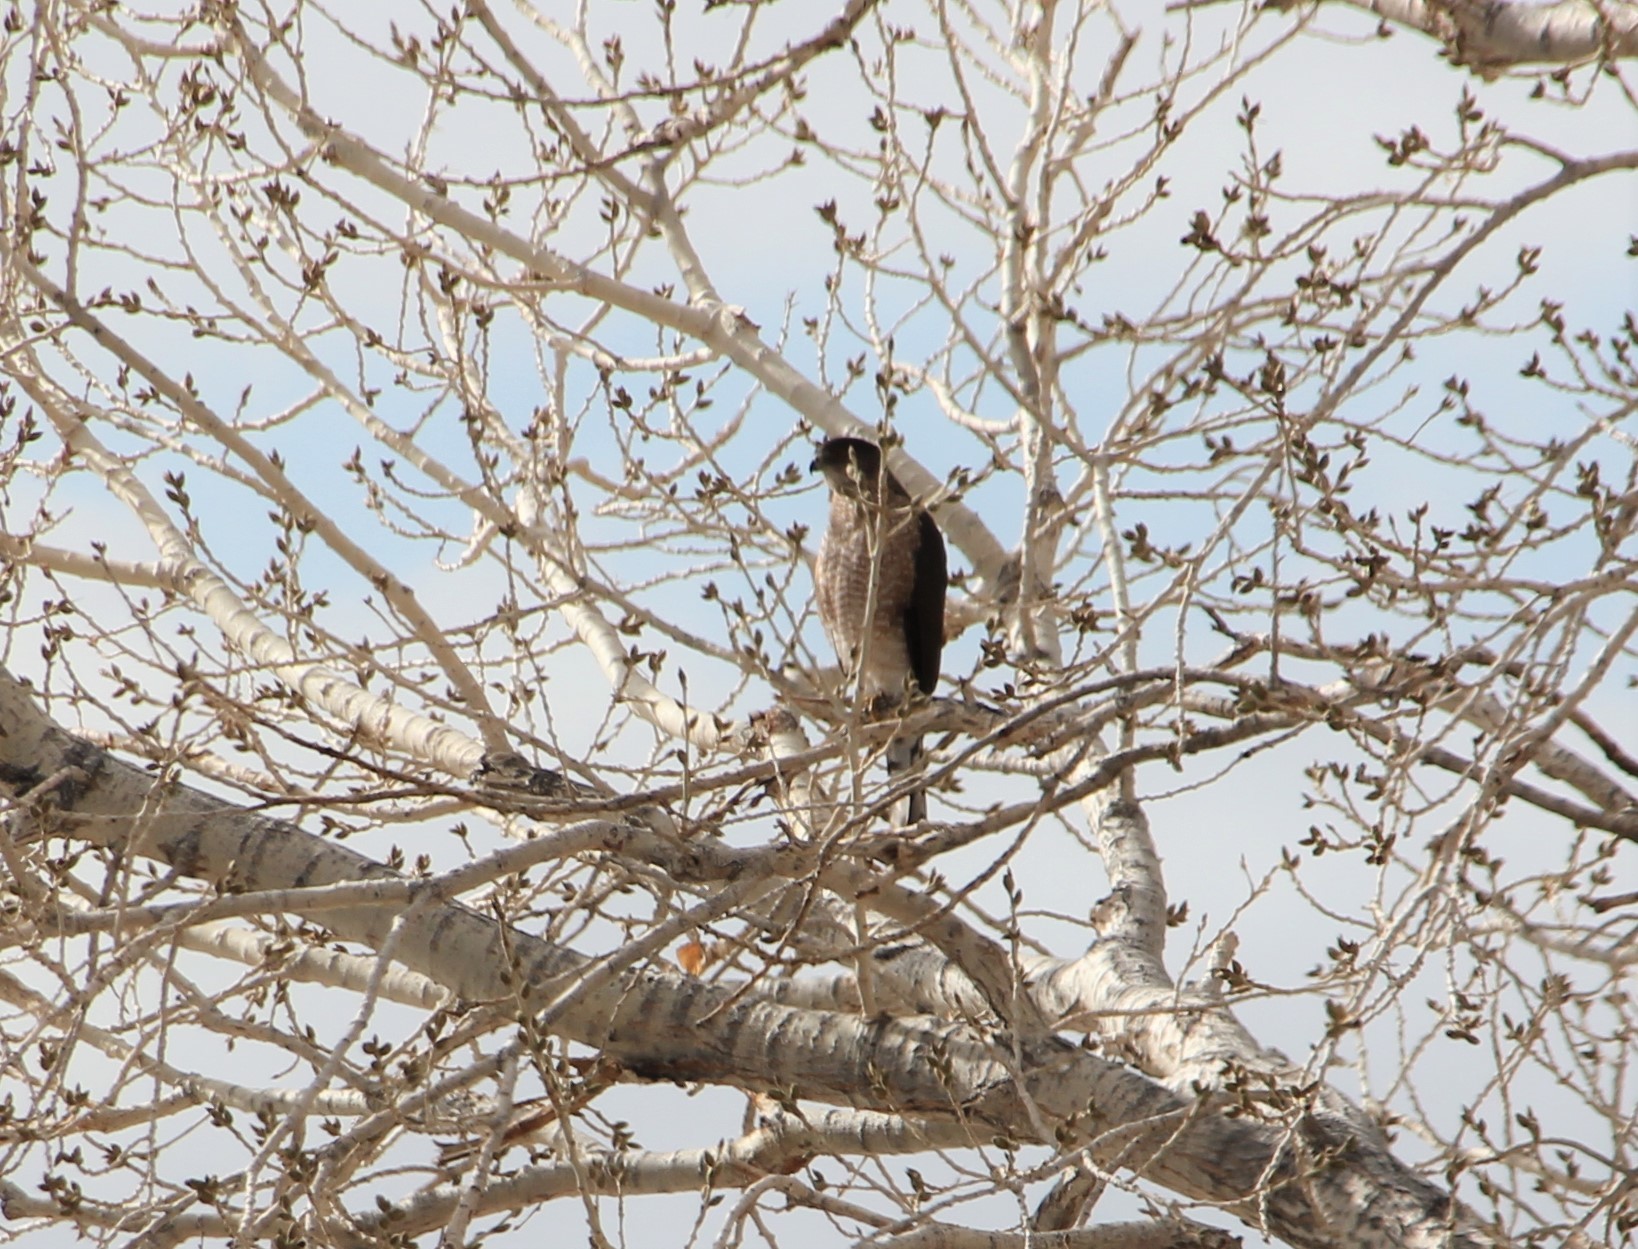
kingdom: Animalia
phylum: Chordata
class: Aves
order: Accipitriformes
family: Accipitridae
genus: Accipiter
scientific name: Accipiter cooperii
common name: Cooper's hawk
